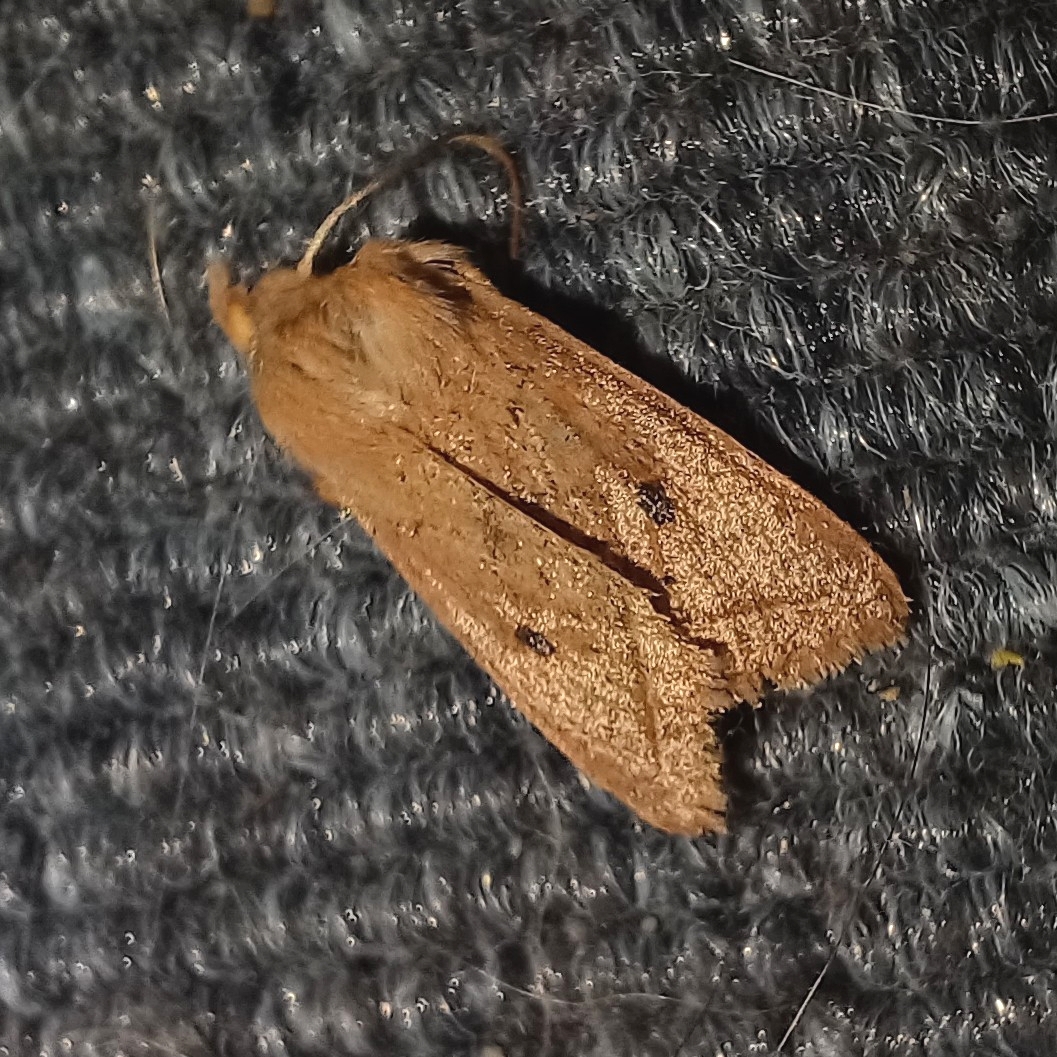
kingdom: Animalia
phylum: Arthropoda
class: Insecta
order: Lepidoptera
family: Noctuidae
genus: Agrochola
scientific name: Agrochola macilenta
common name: Yellow-line quaker
